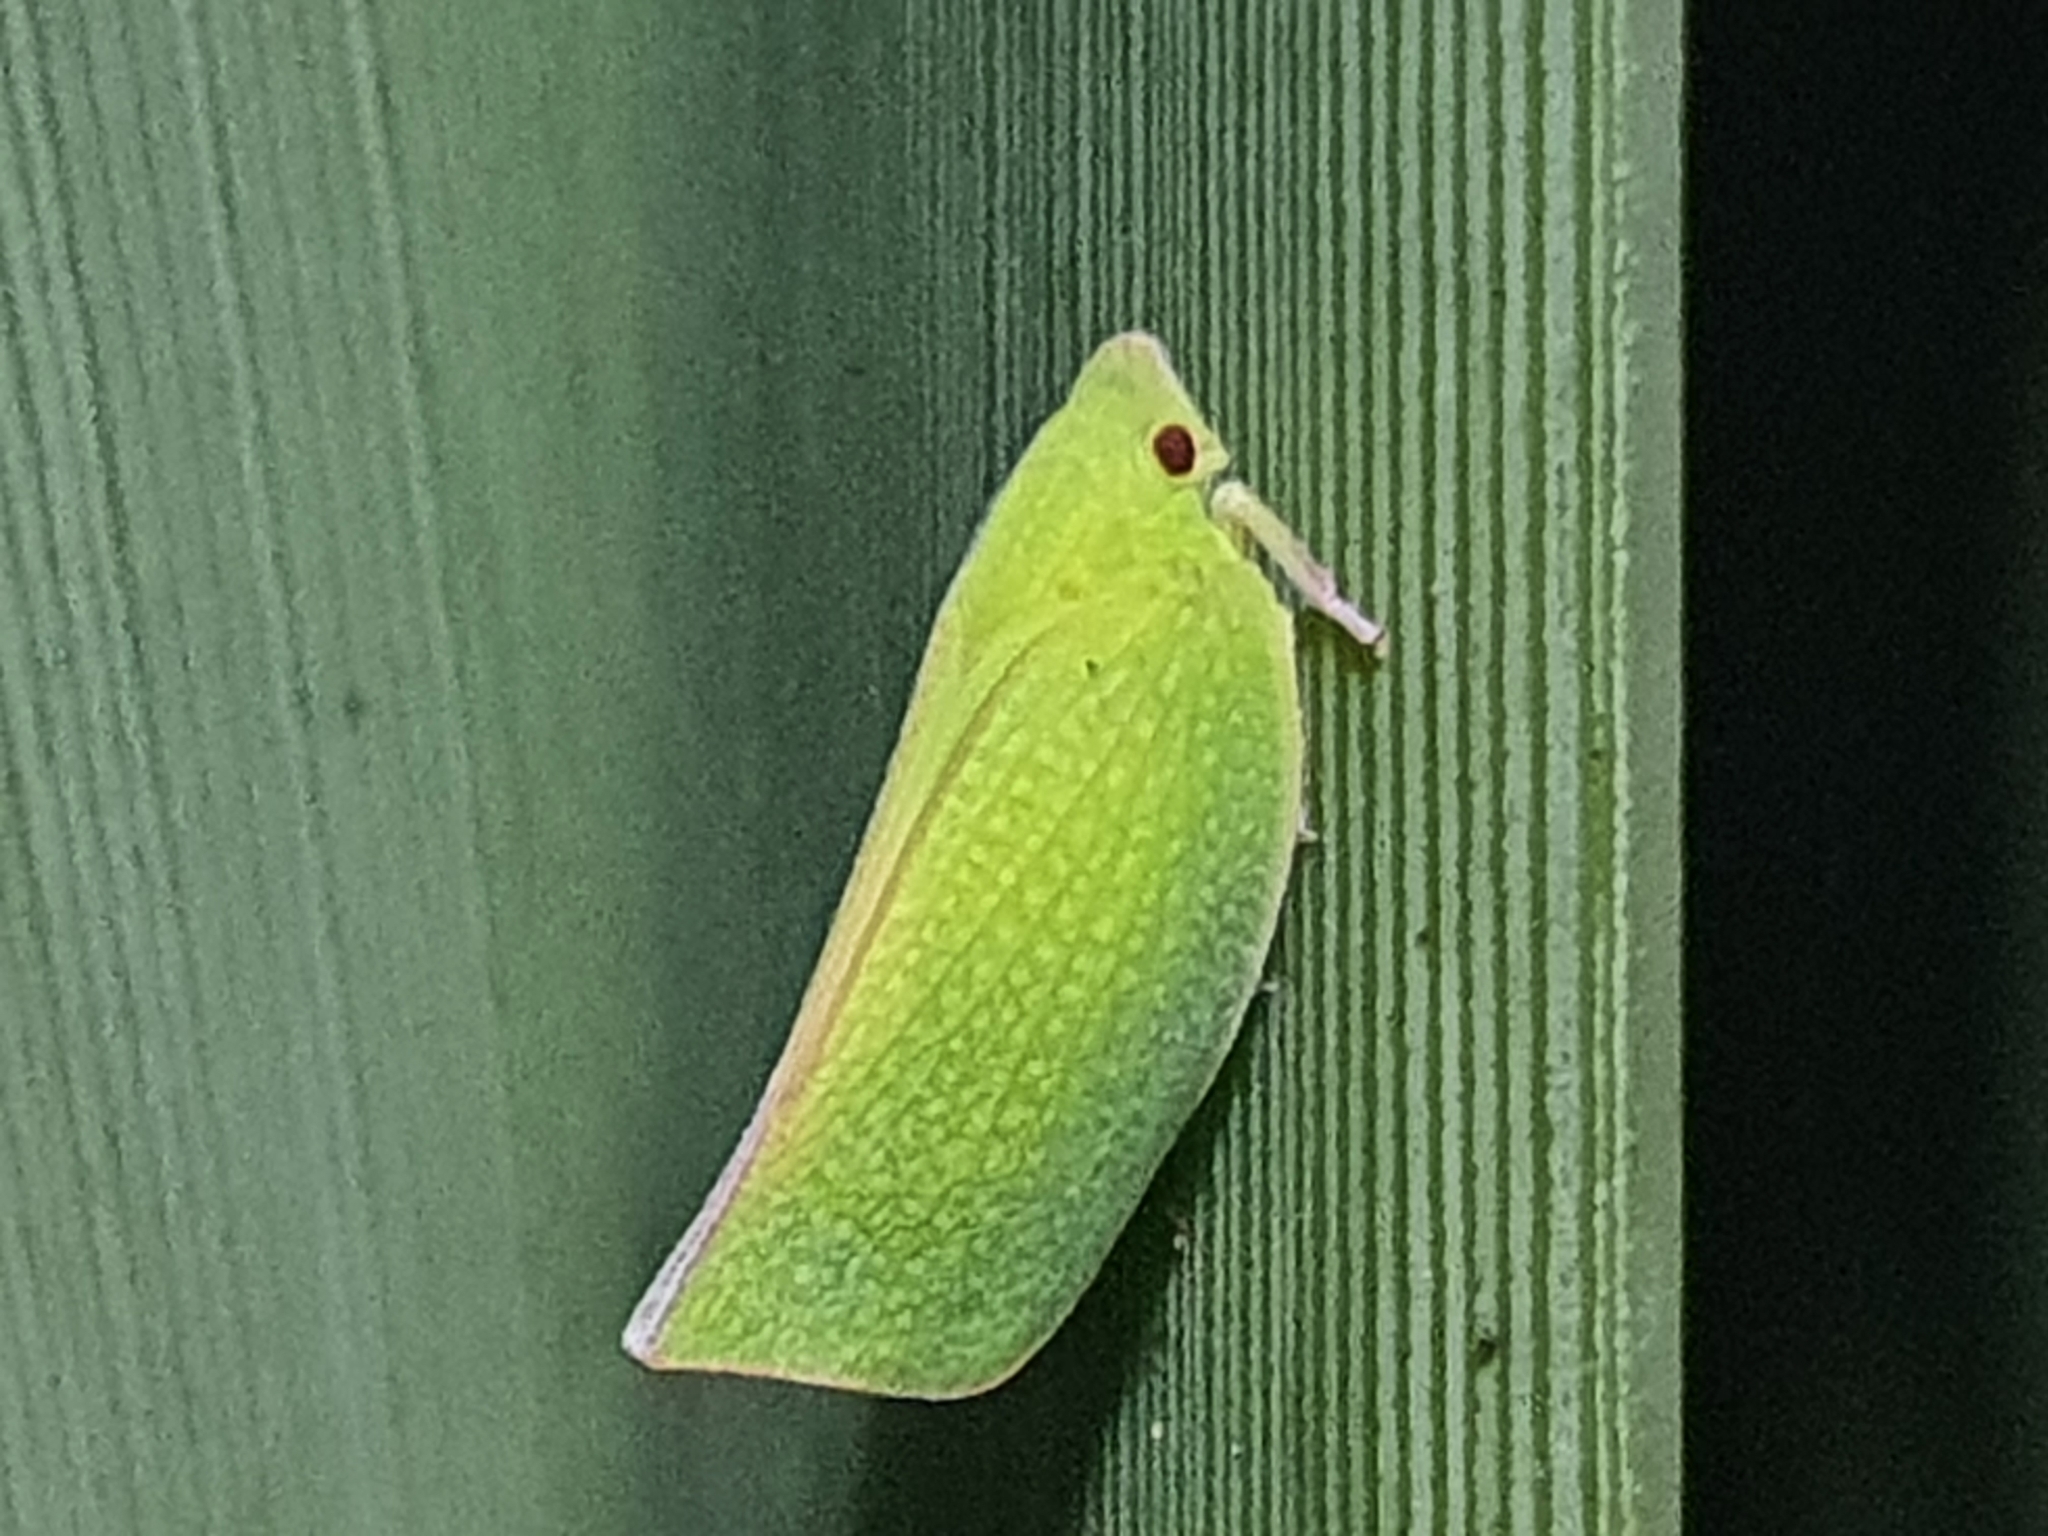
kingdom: Animalia
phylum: Arthropoda
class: Insecta
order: Hemiptera
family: Flatidae
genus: Siphanta
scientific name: Siphanta acuta
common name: Torpedo bug
